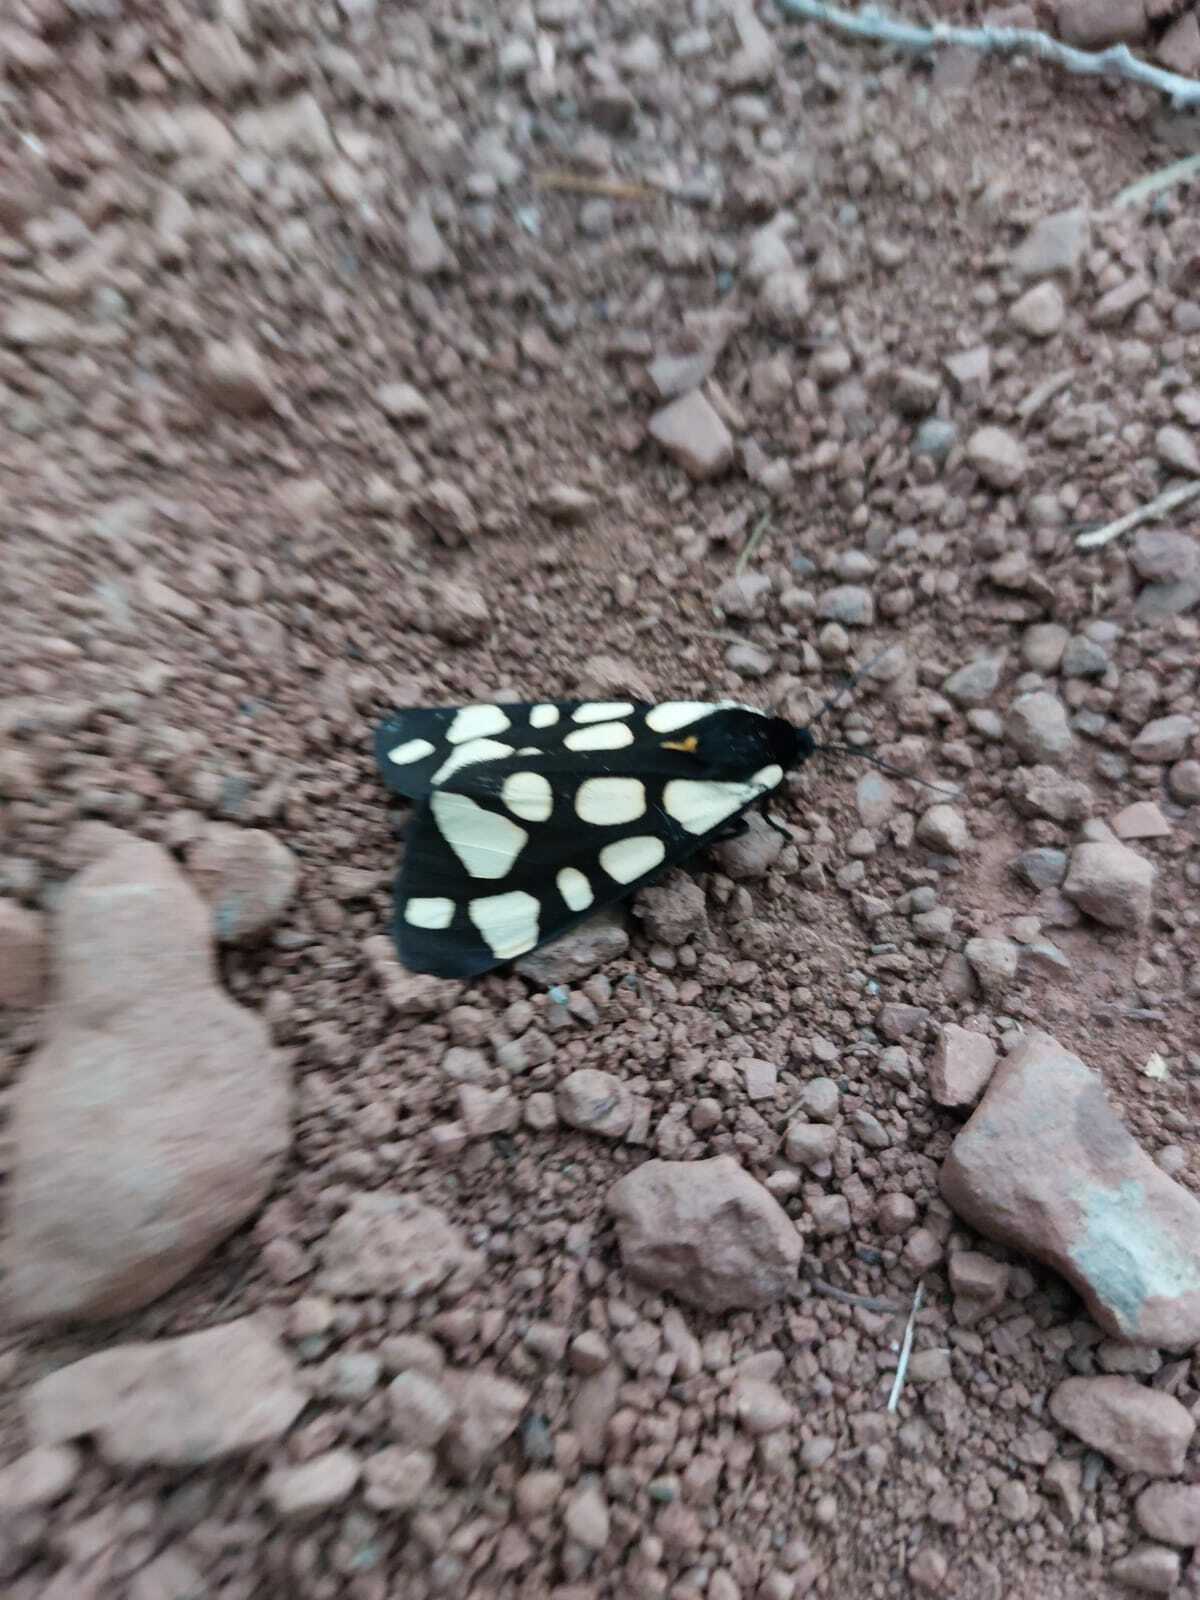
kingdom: Animalia
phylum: Arthropoda
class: Insecta
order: Lepidoptera
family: Erebidae
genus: Epicallia
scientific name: Epicallia villica
